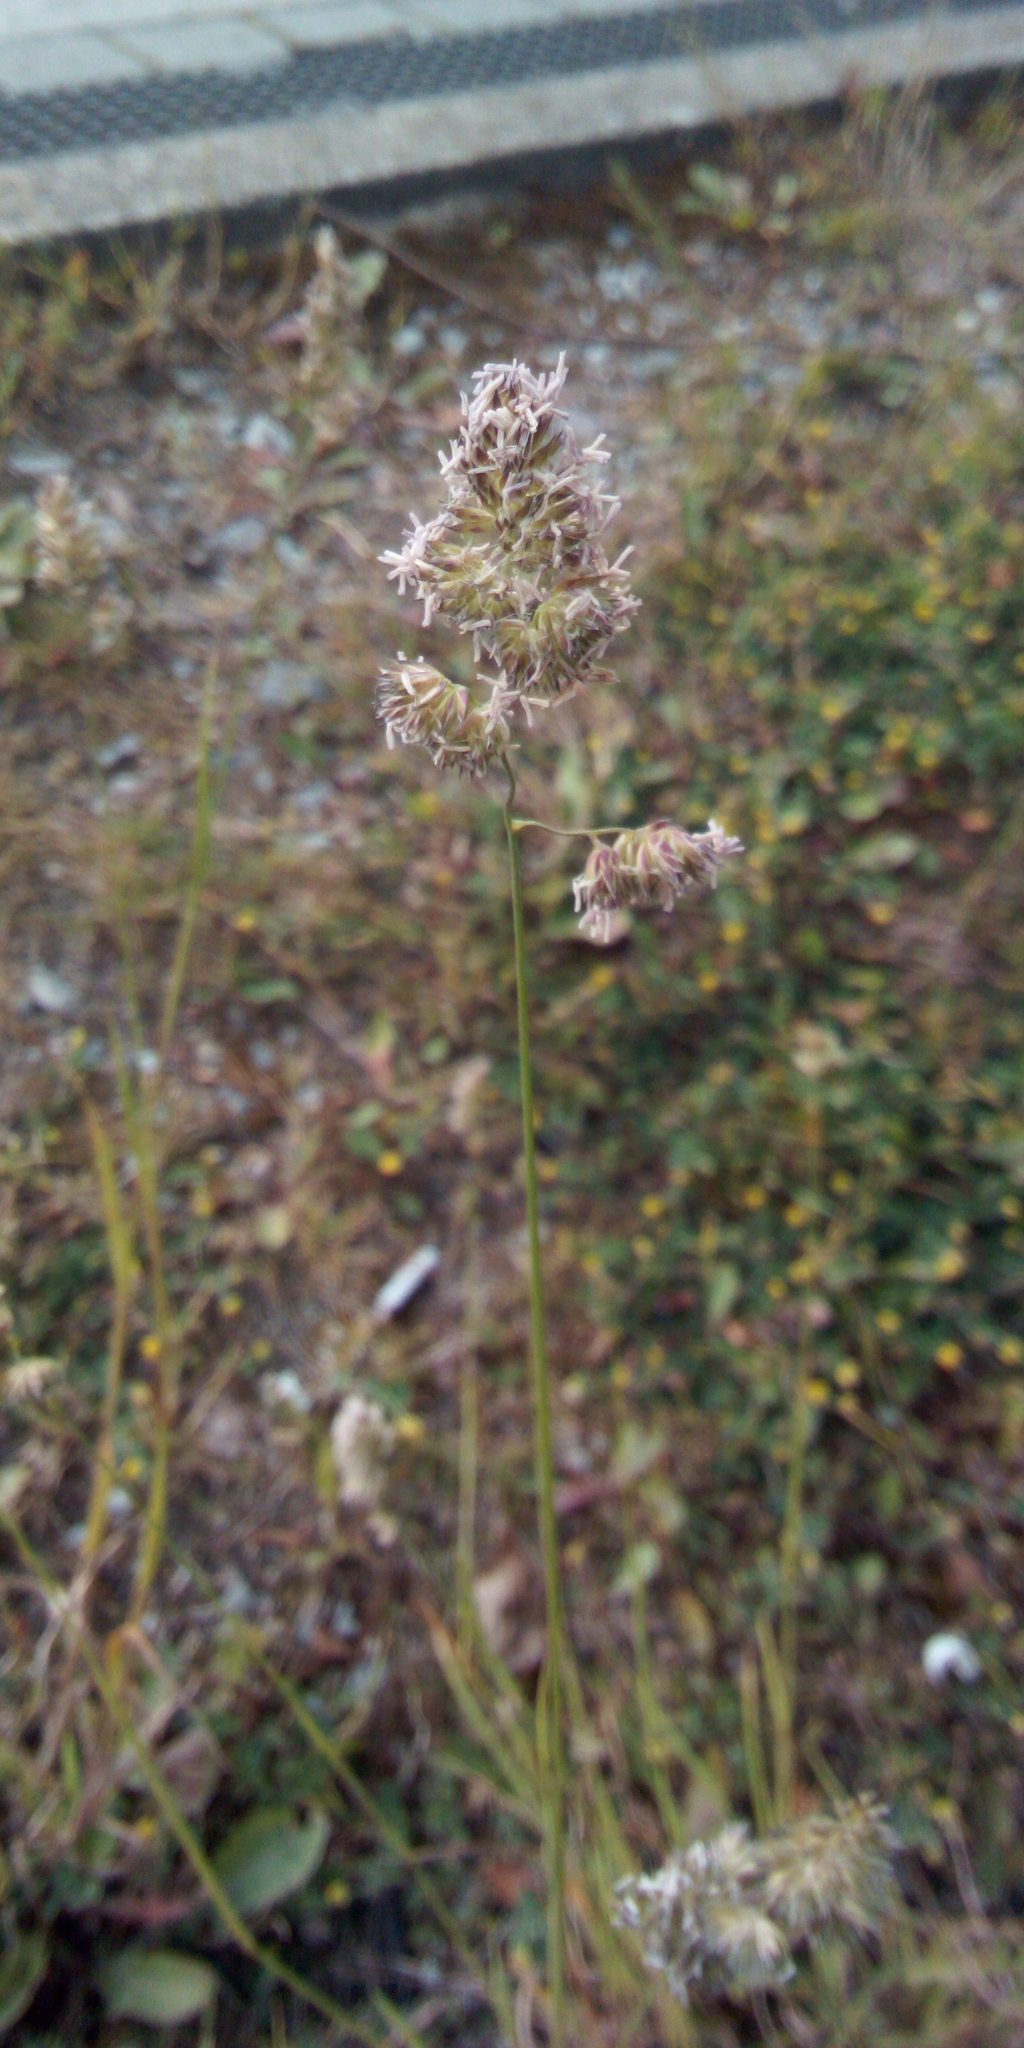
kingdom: Plantae
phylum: Tracheophyta
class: Liliopsida
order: Poales
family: Poaceae
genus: Dactylis
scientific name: Dactylis glomerata
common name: Orchardgrass
